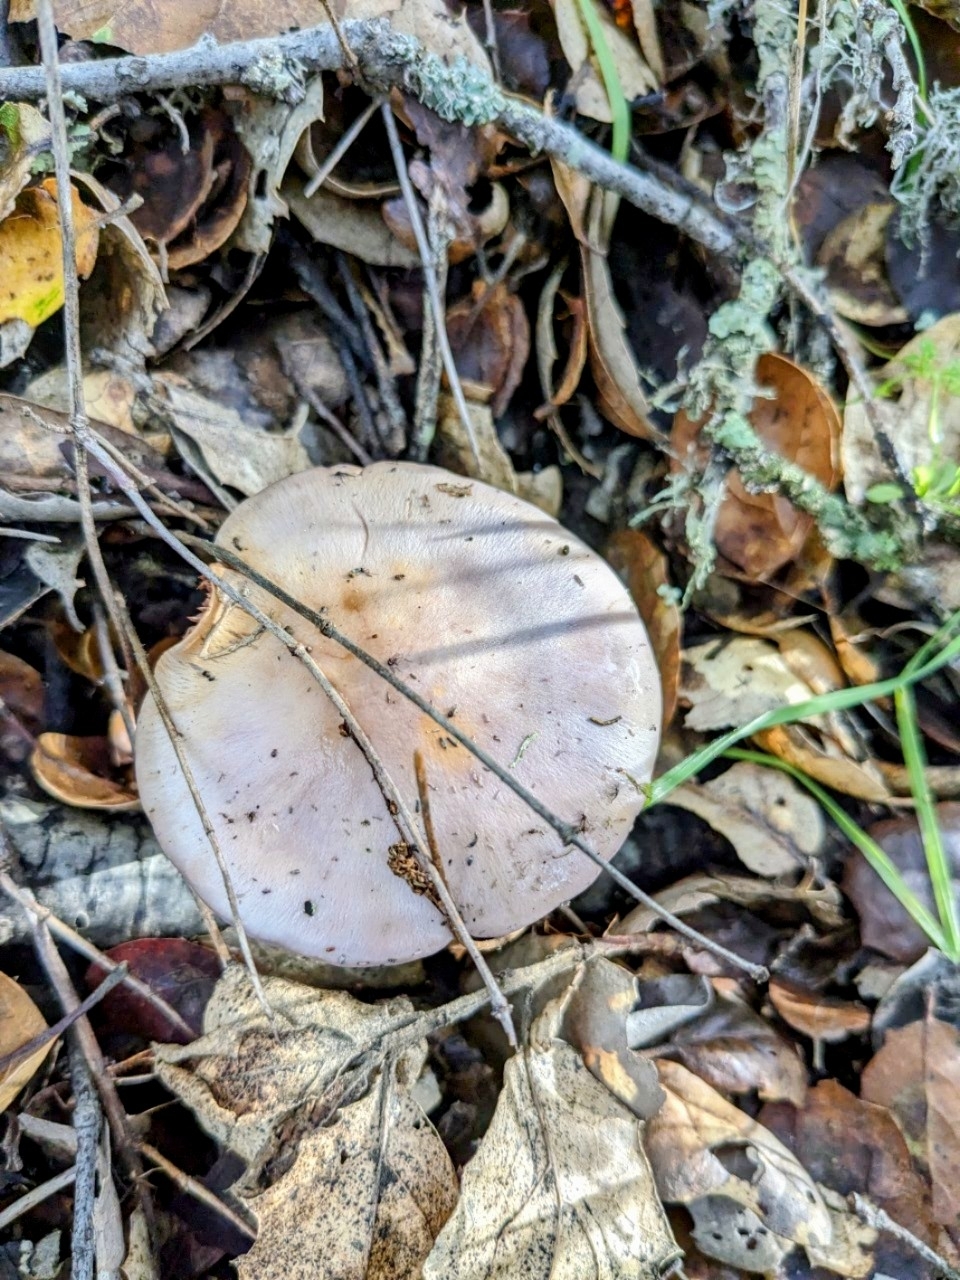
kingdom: Fungi
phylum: Basidiomycota
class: Agaricomycetes
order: Agaricales
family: Tricholomataceae
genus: Collybia
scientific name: Collybia
